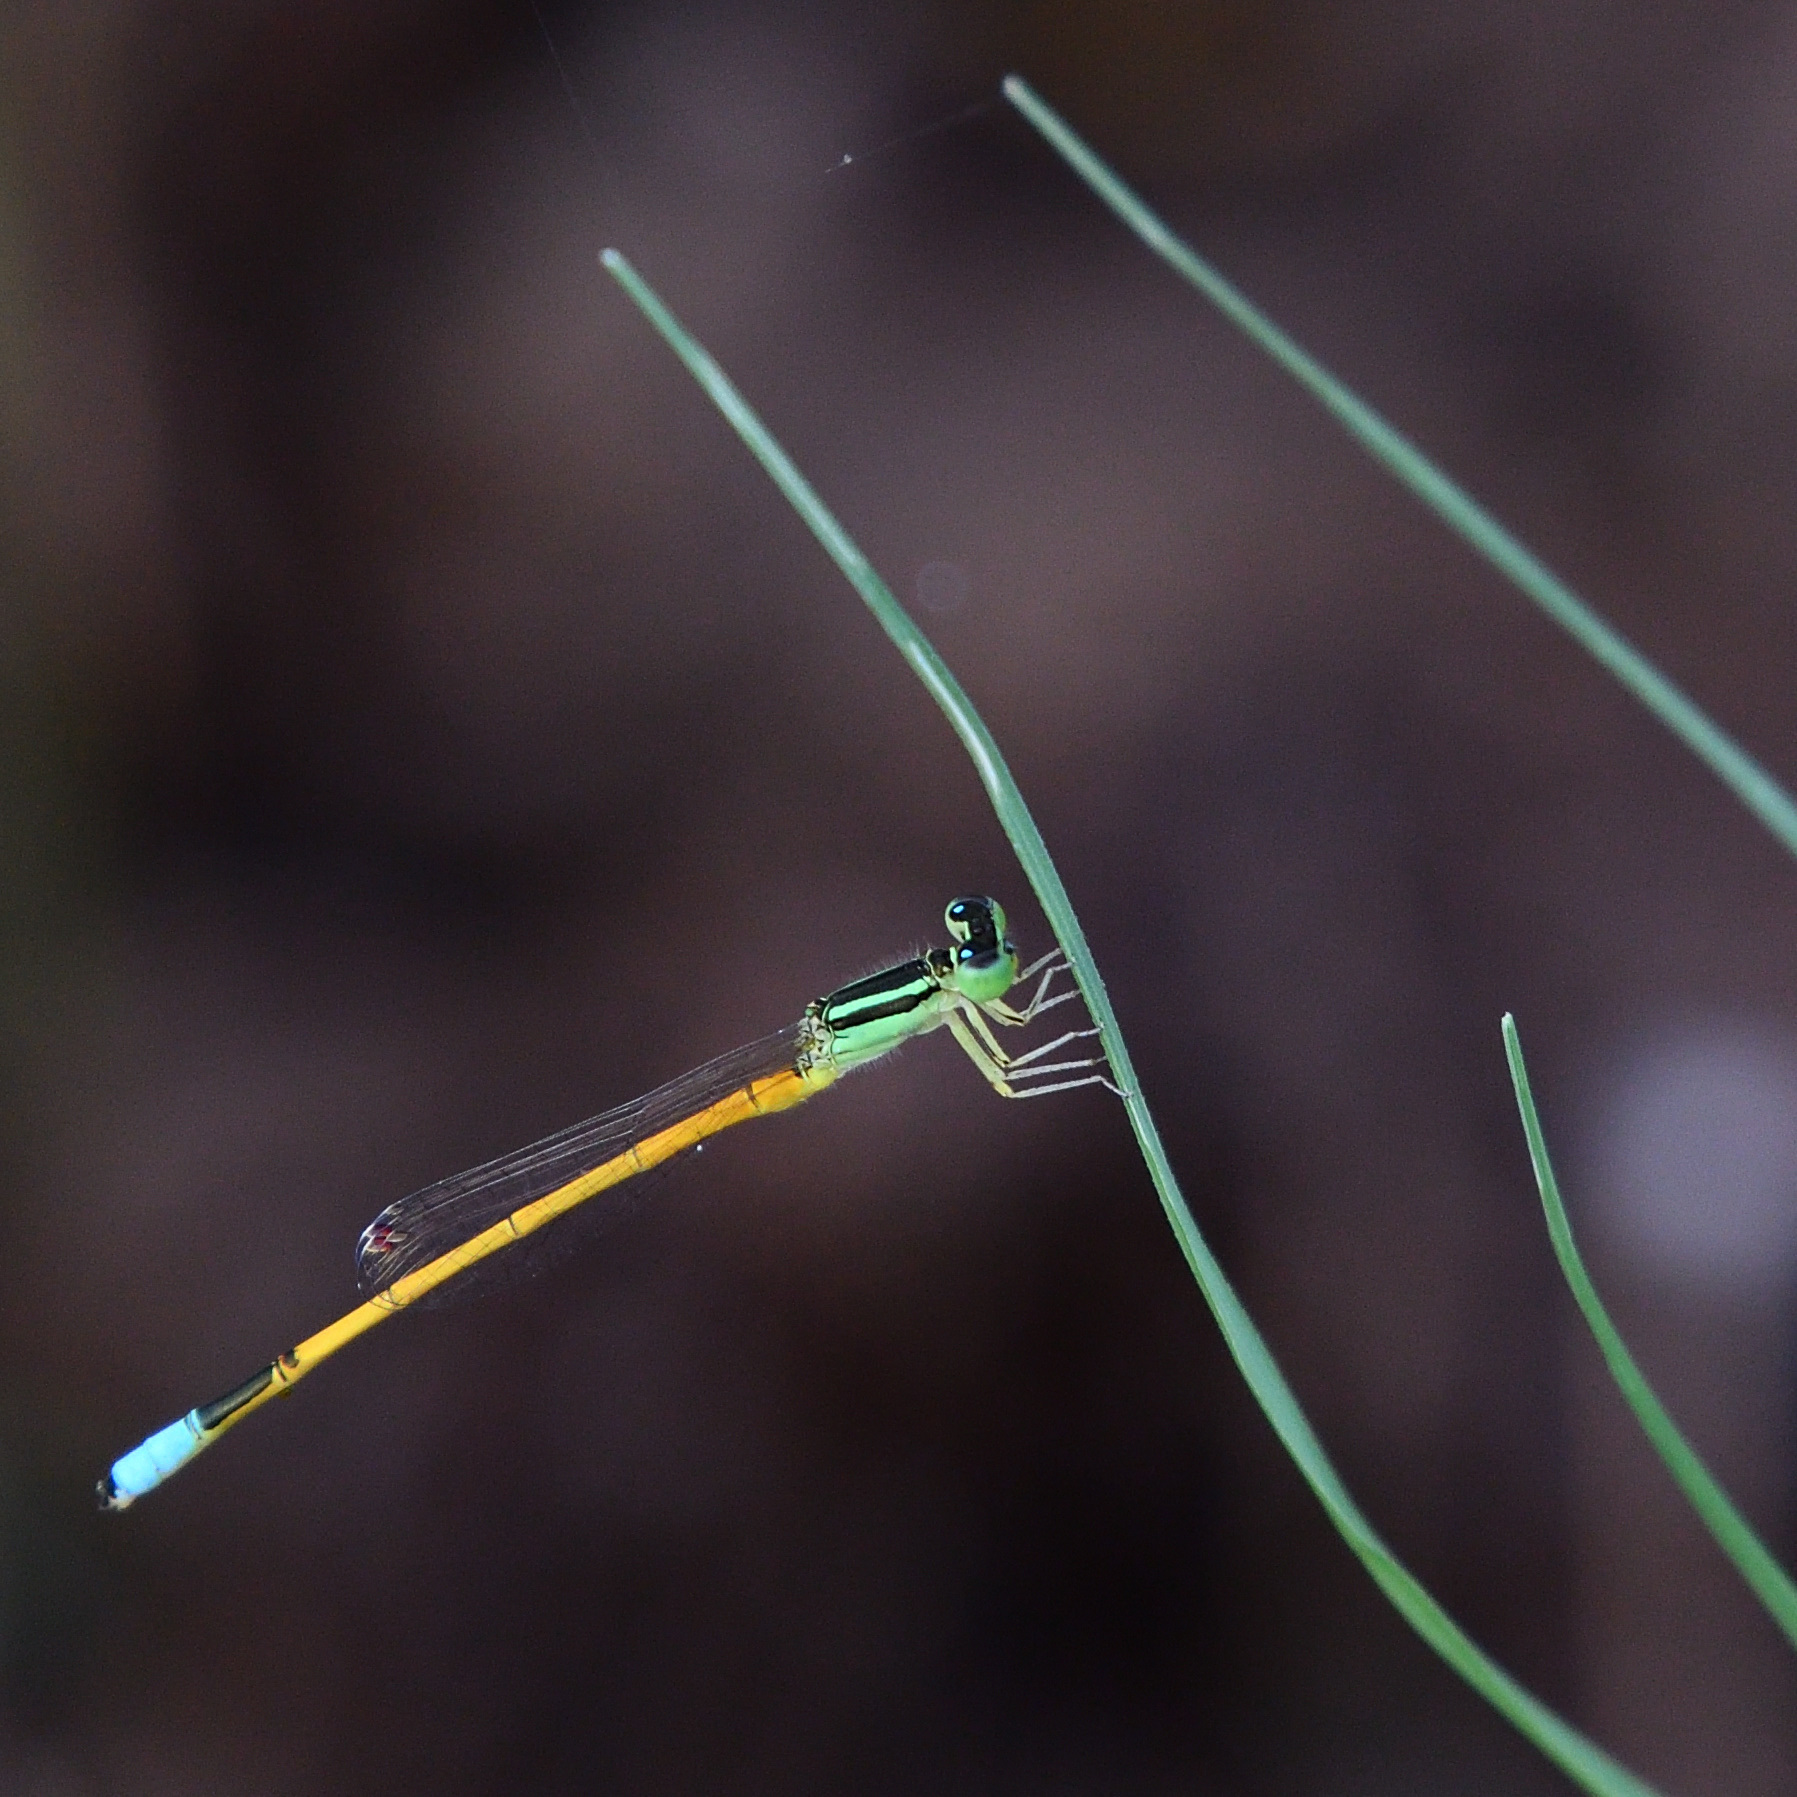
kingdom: Animalia
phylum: Arthropoda
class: Insecta
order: Odonata
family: Coenagrionidae
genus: Ischnura
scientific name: Ischnura rubilio
